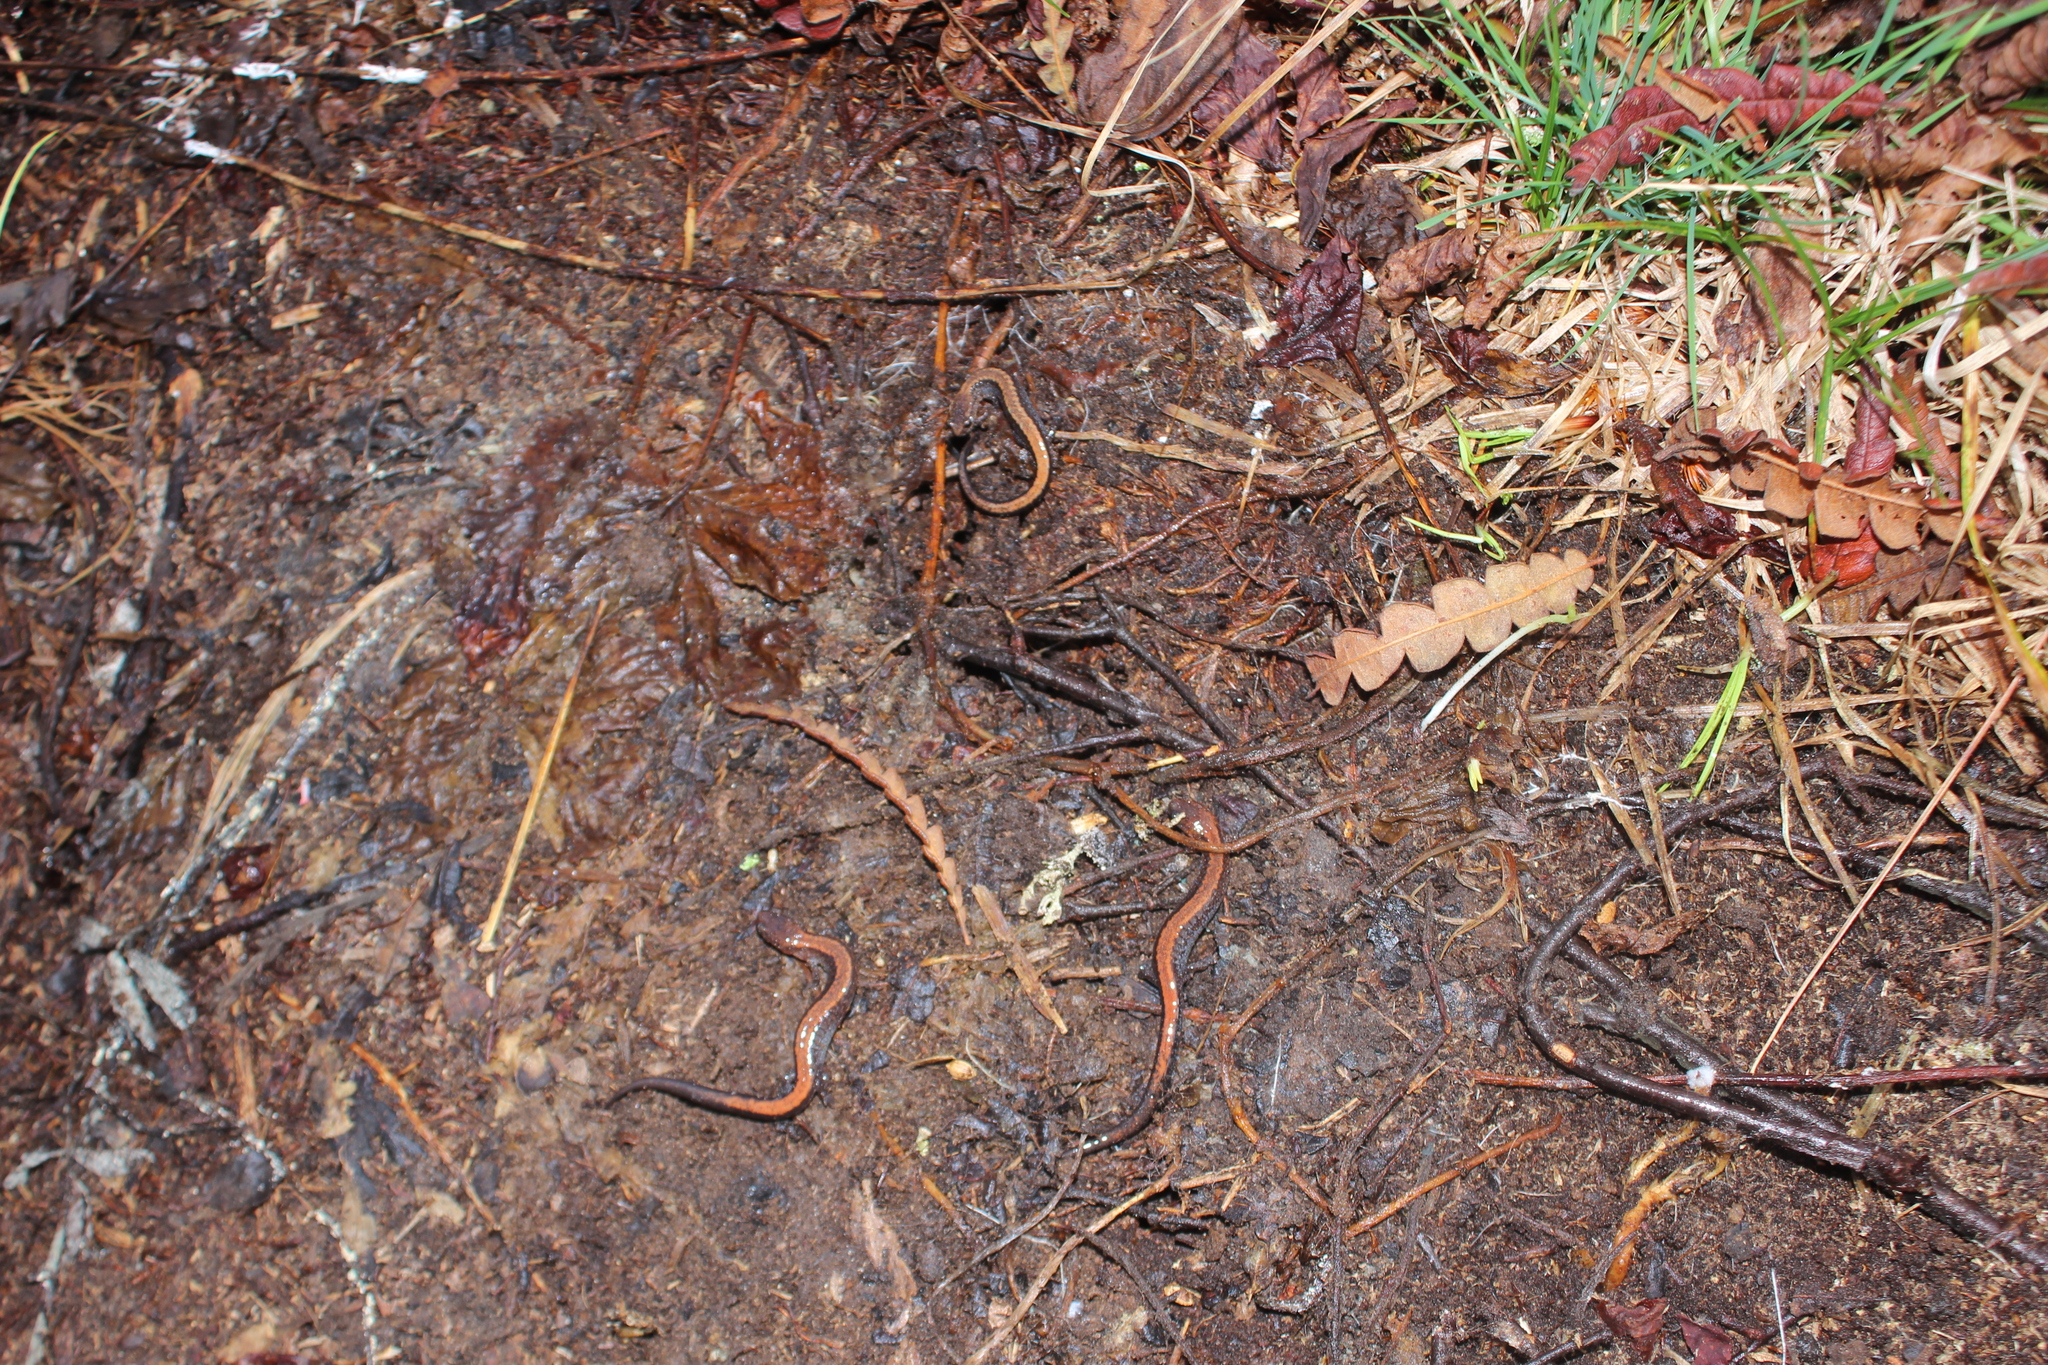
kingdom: Animalia
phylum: Chordata
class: Amphibia
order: Caudata
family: Plethodontidae
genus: Plethodon
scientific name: Plethodon cinereus
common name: Redback salamander
